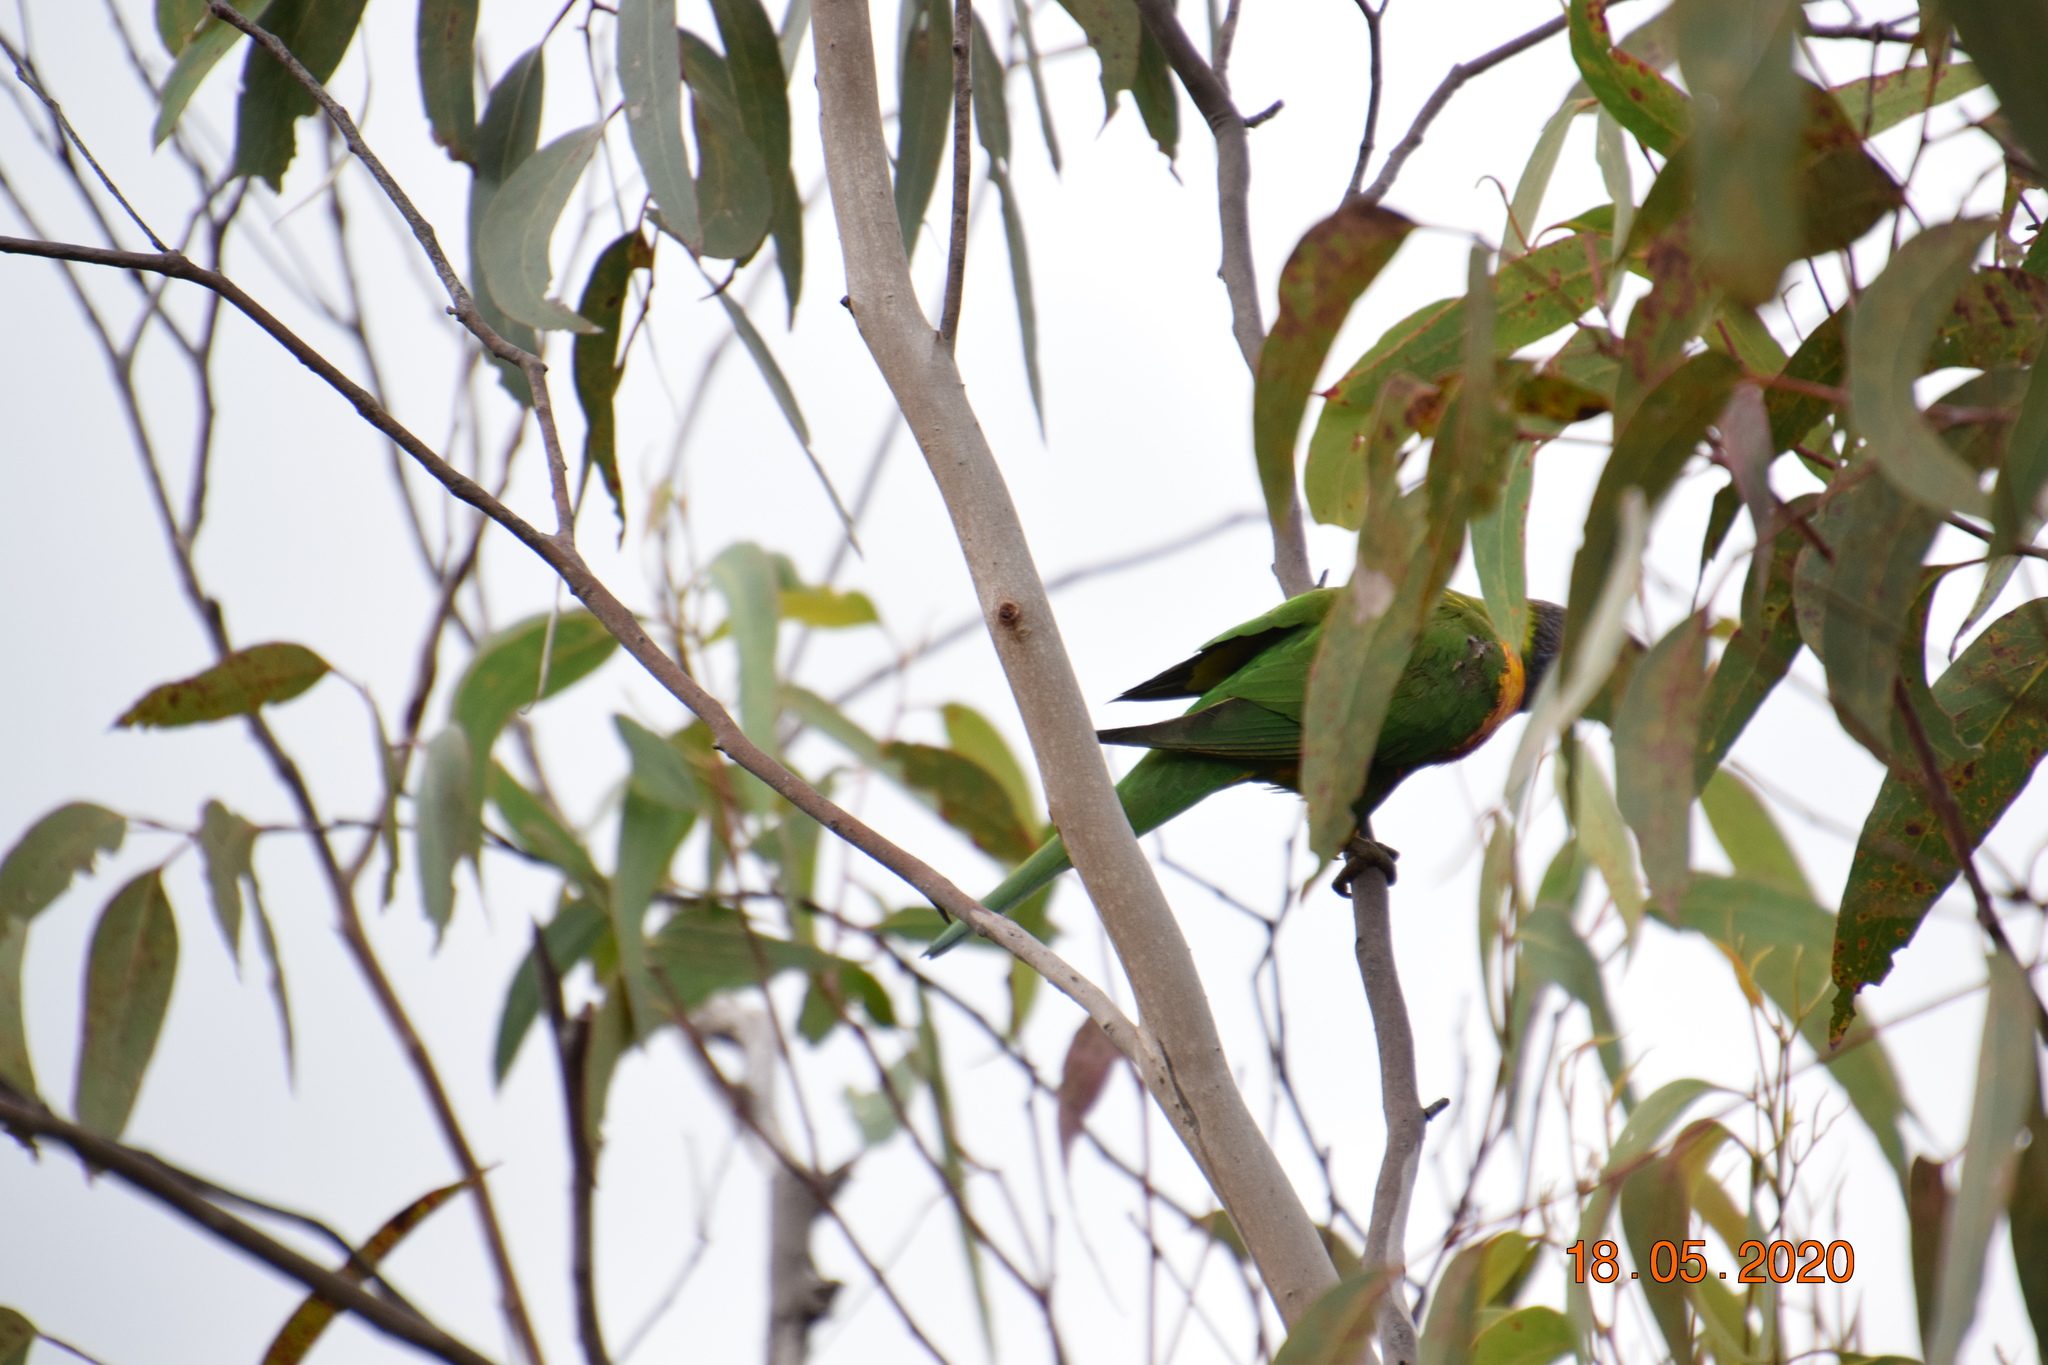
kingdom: Animalia
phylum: Chordata
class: Aves
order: Psittaciformes
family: Psittacidae
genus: Trichoglossus
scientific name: Trichoglossus haematodus
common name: Coconut lorikeet
